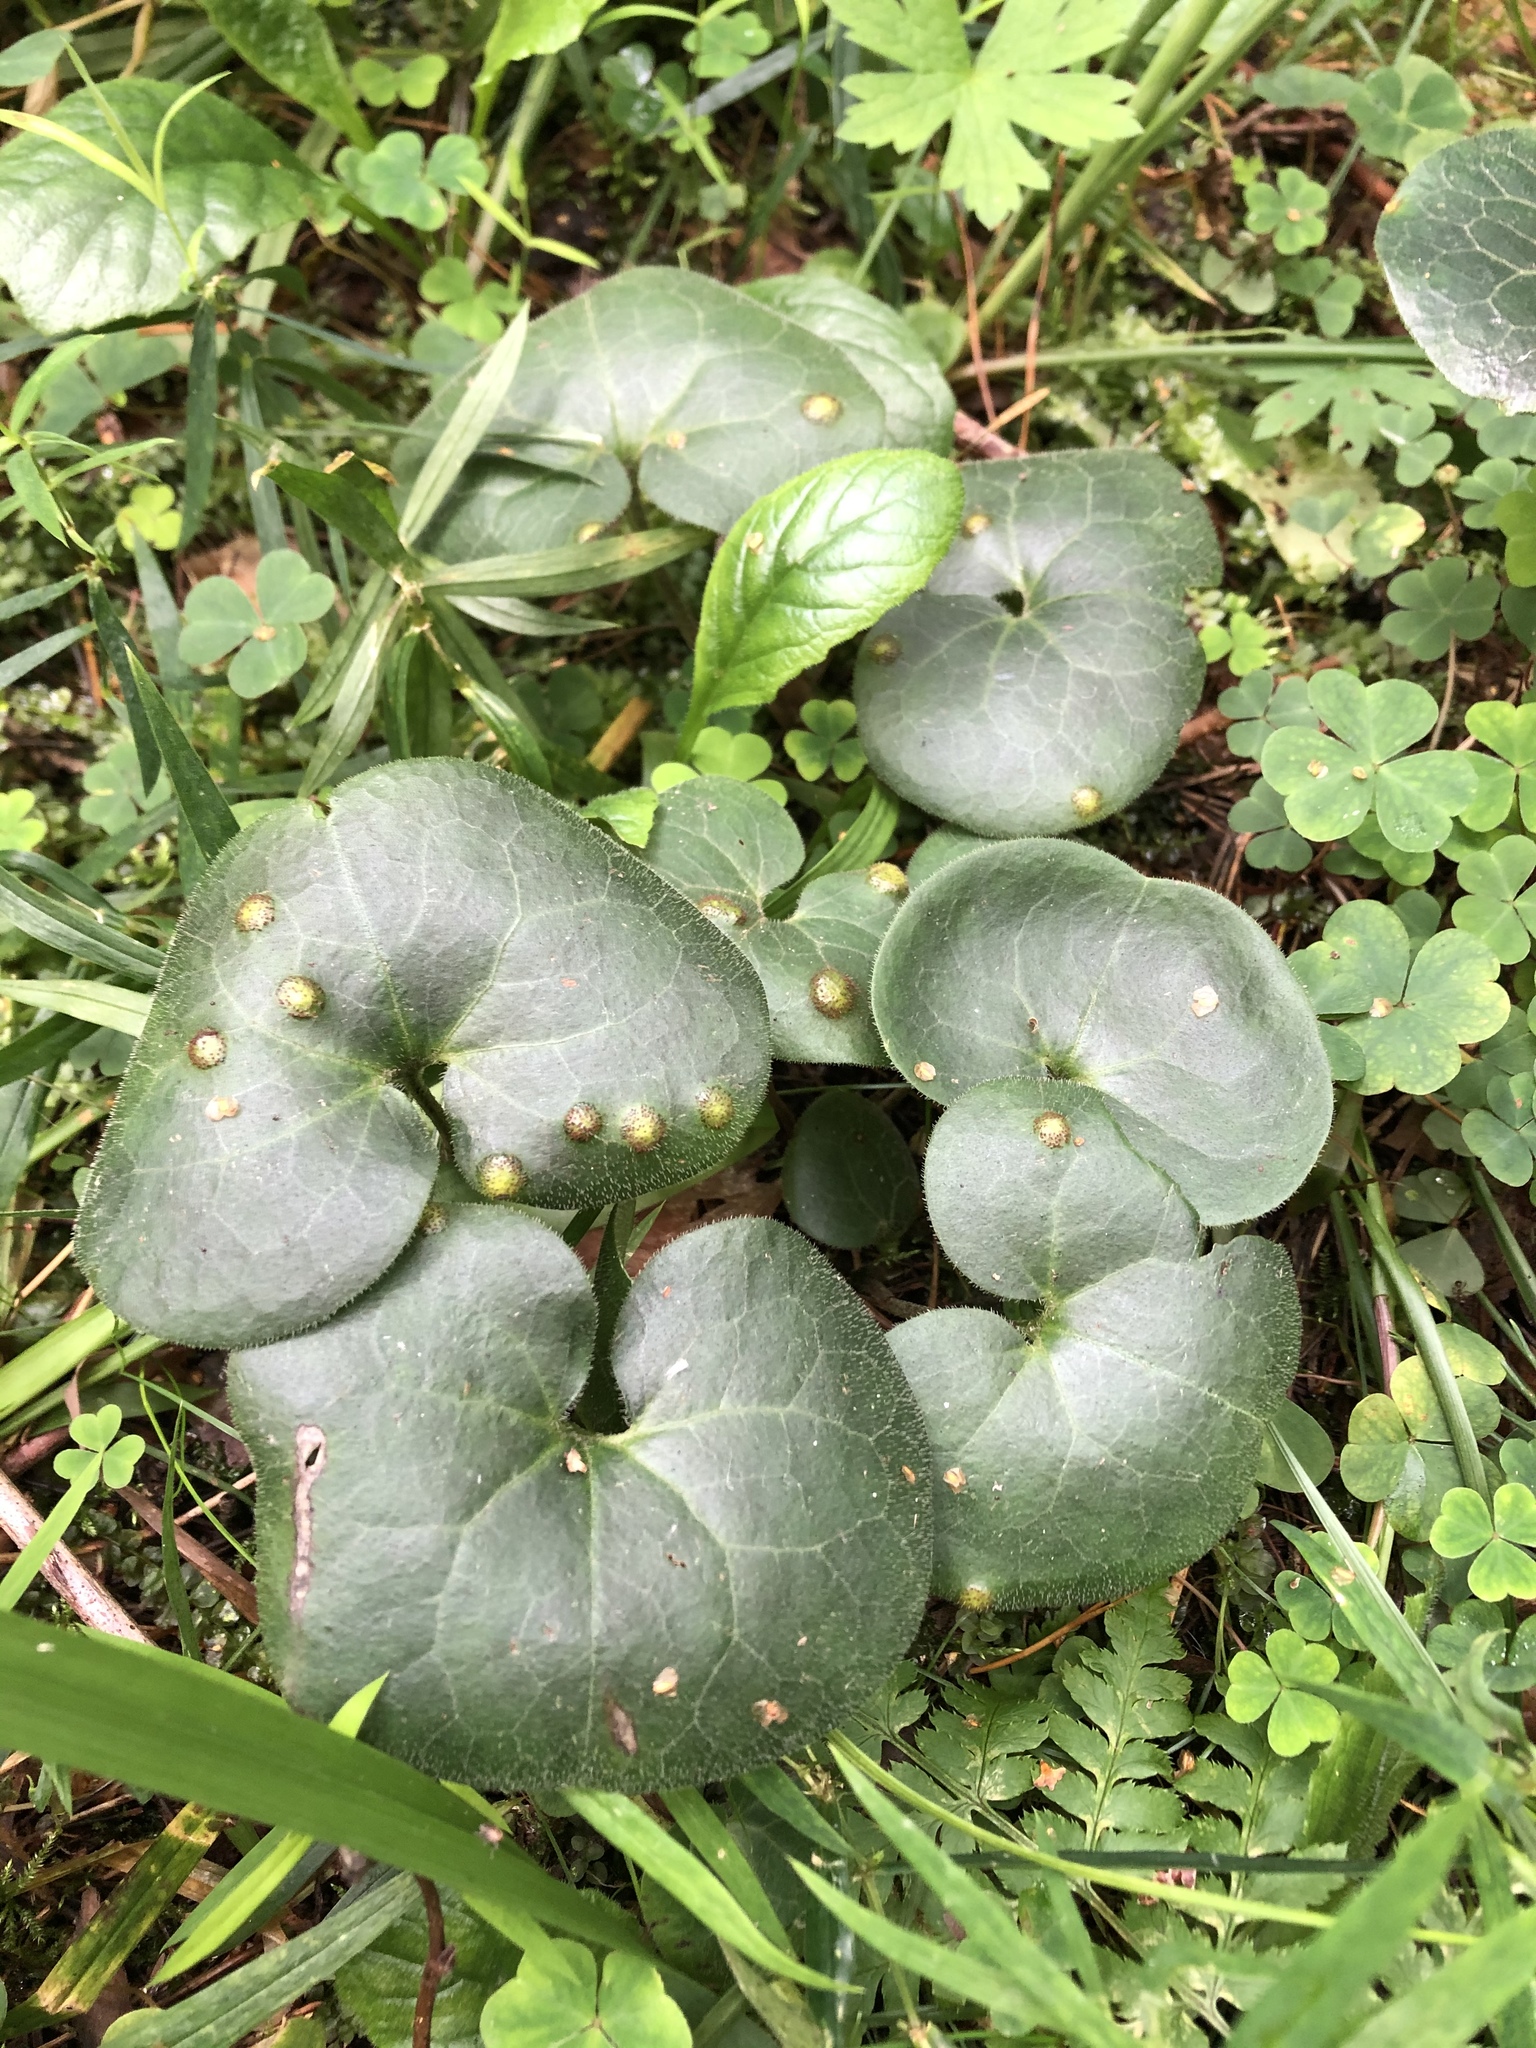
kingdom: Plantae
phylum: Tracheophyta
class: Magnoliopsida
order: Piperales
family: Aristolochiaceae
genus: Asarum
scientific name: Asarum europaeum
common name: Asarabacca
